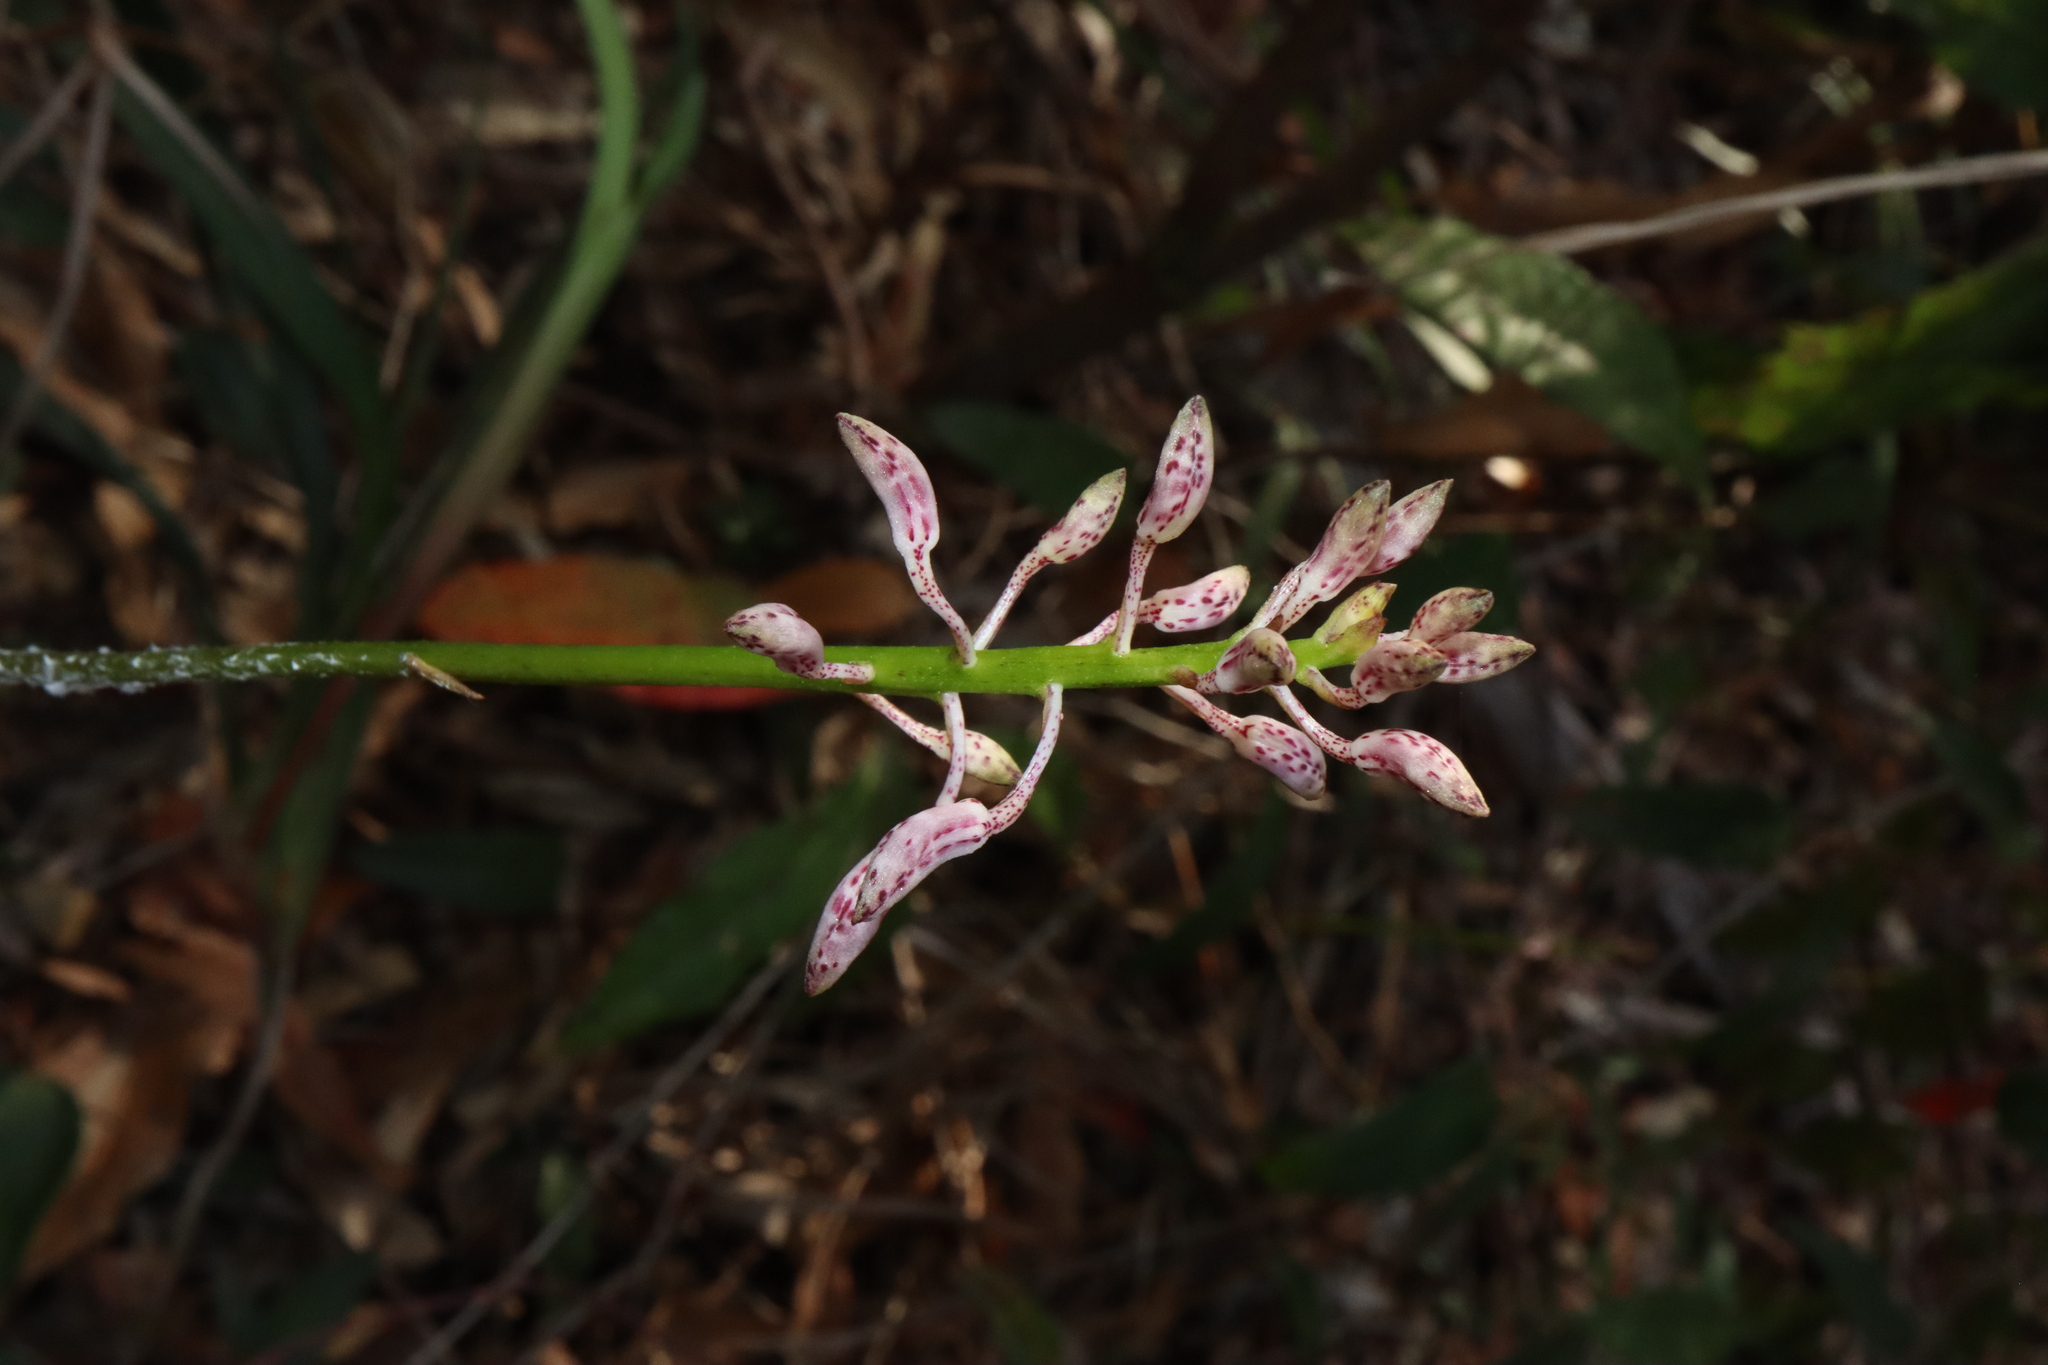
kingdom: Plantae
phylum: Tracheophyta
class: Liliopsida
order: Asparagales
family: Orchidaceae
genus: Dipodium
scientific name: Dipodium variegatum
